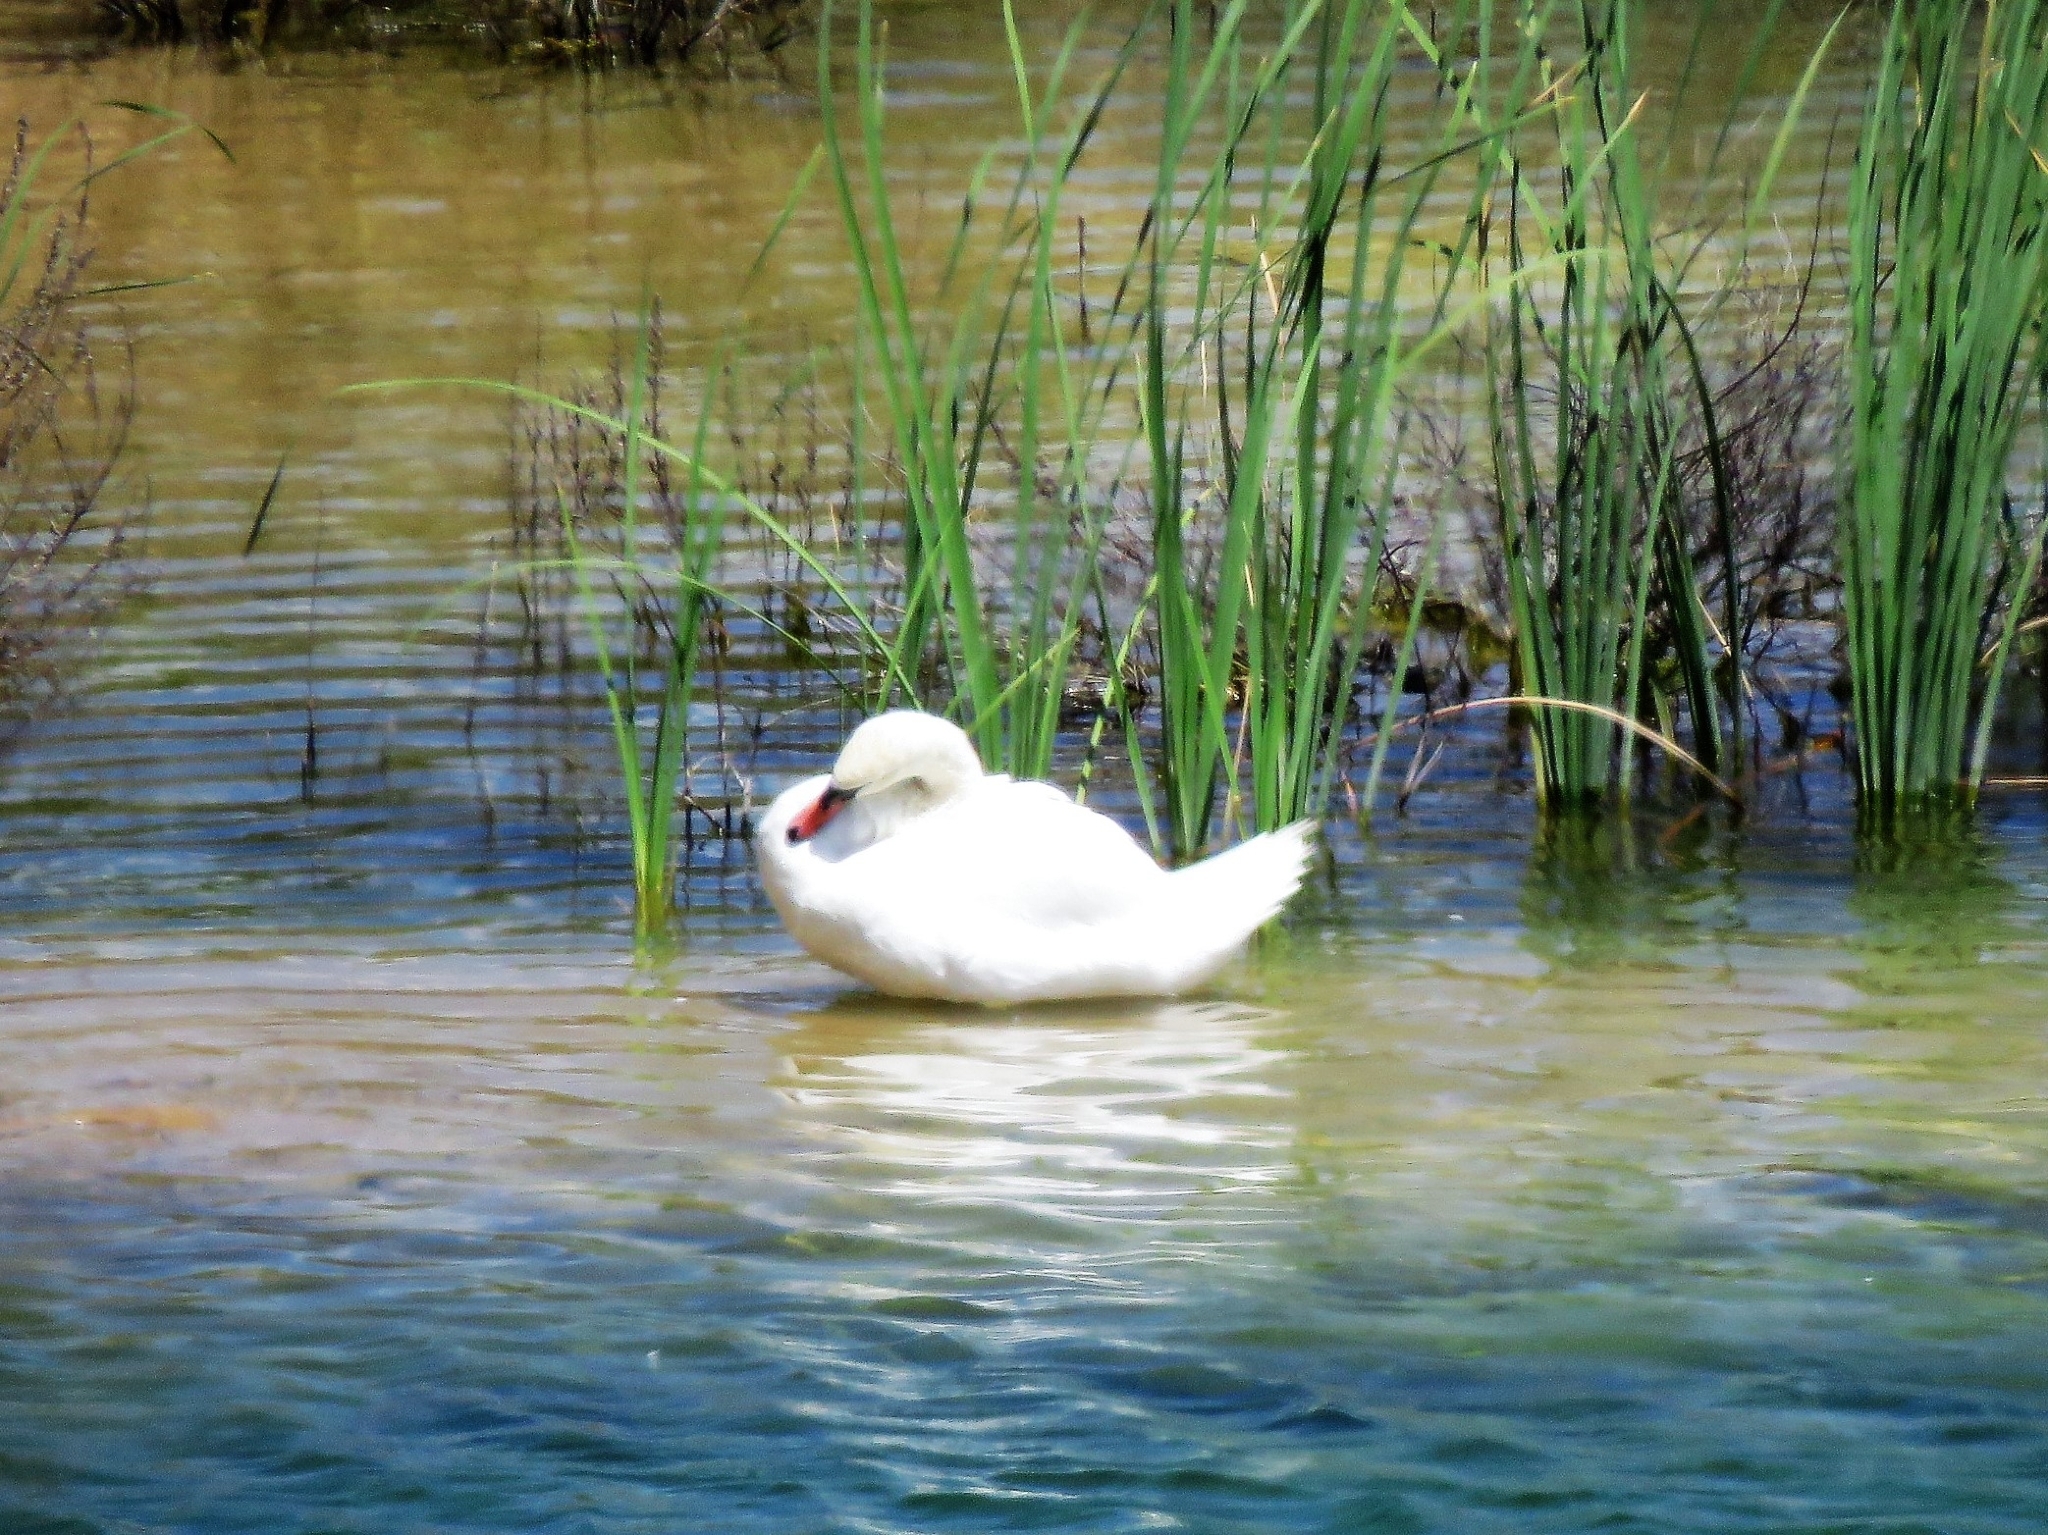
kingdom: Animalia
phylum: Chordata
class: Aves
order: Anseriformes
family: Anatidae
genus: Cygnus
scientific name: Cygnus olor
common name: Mute swan
